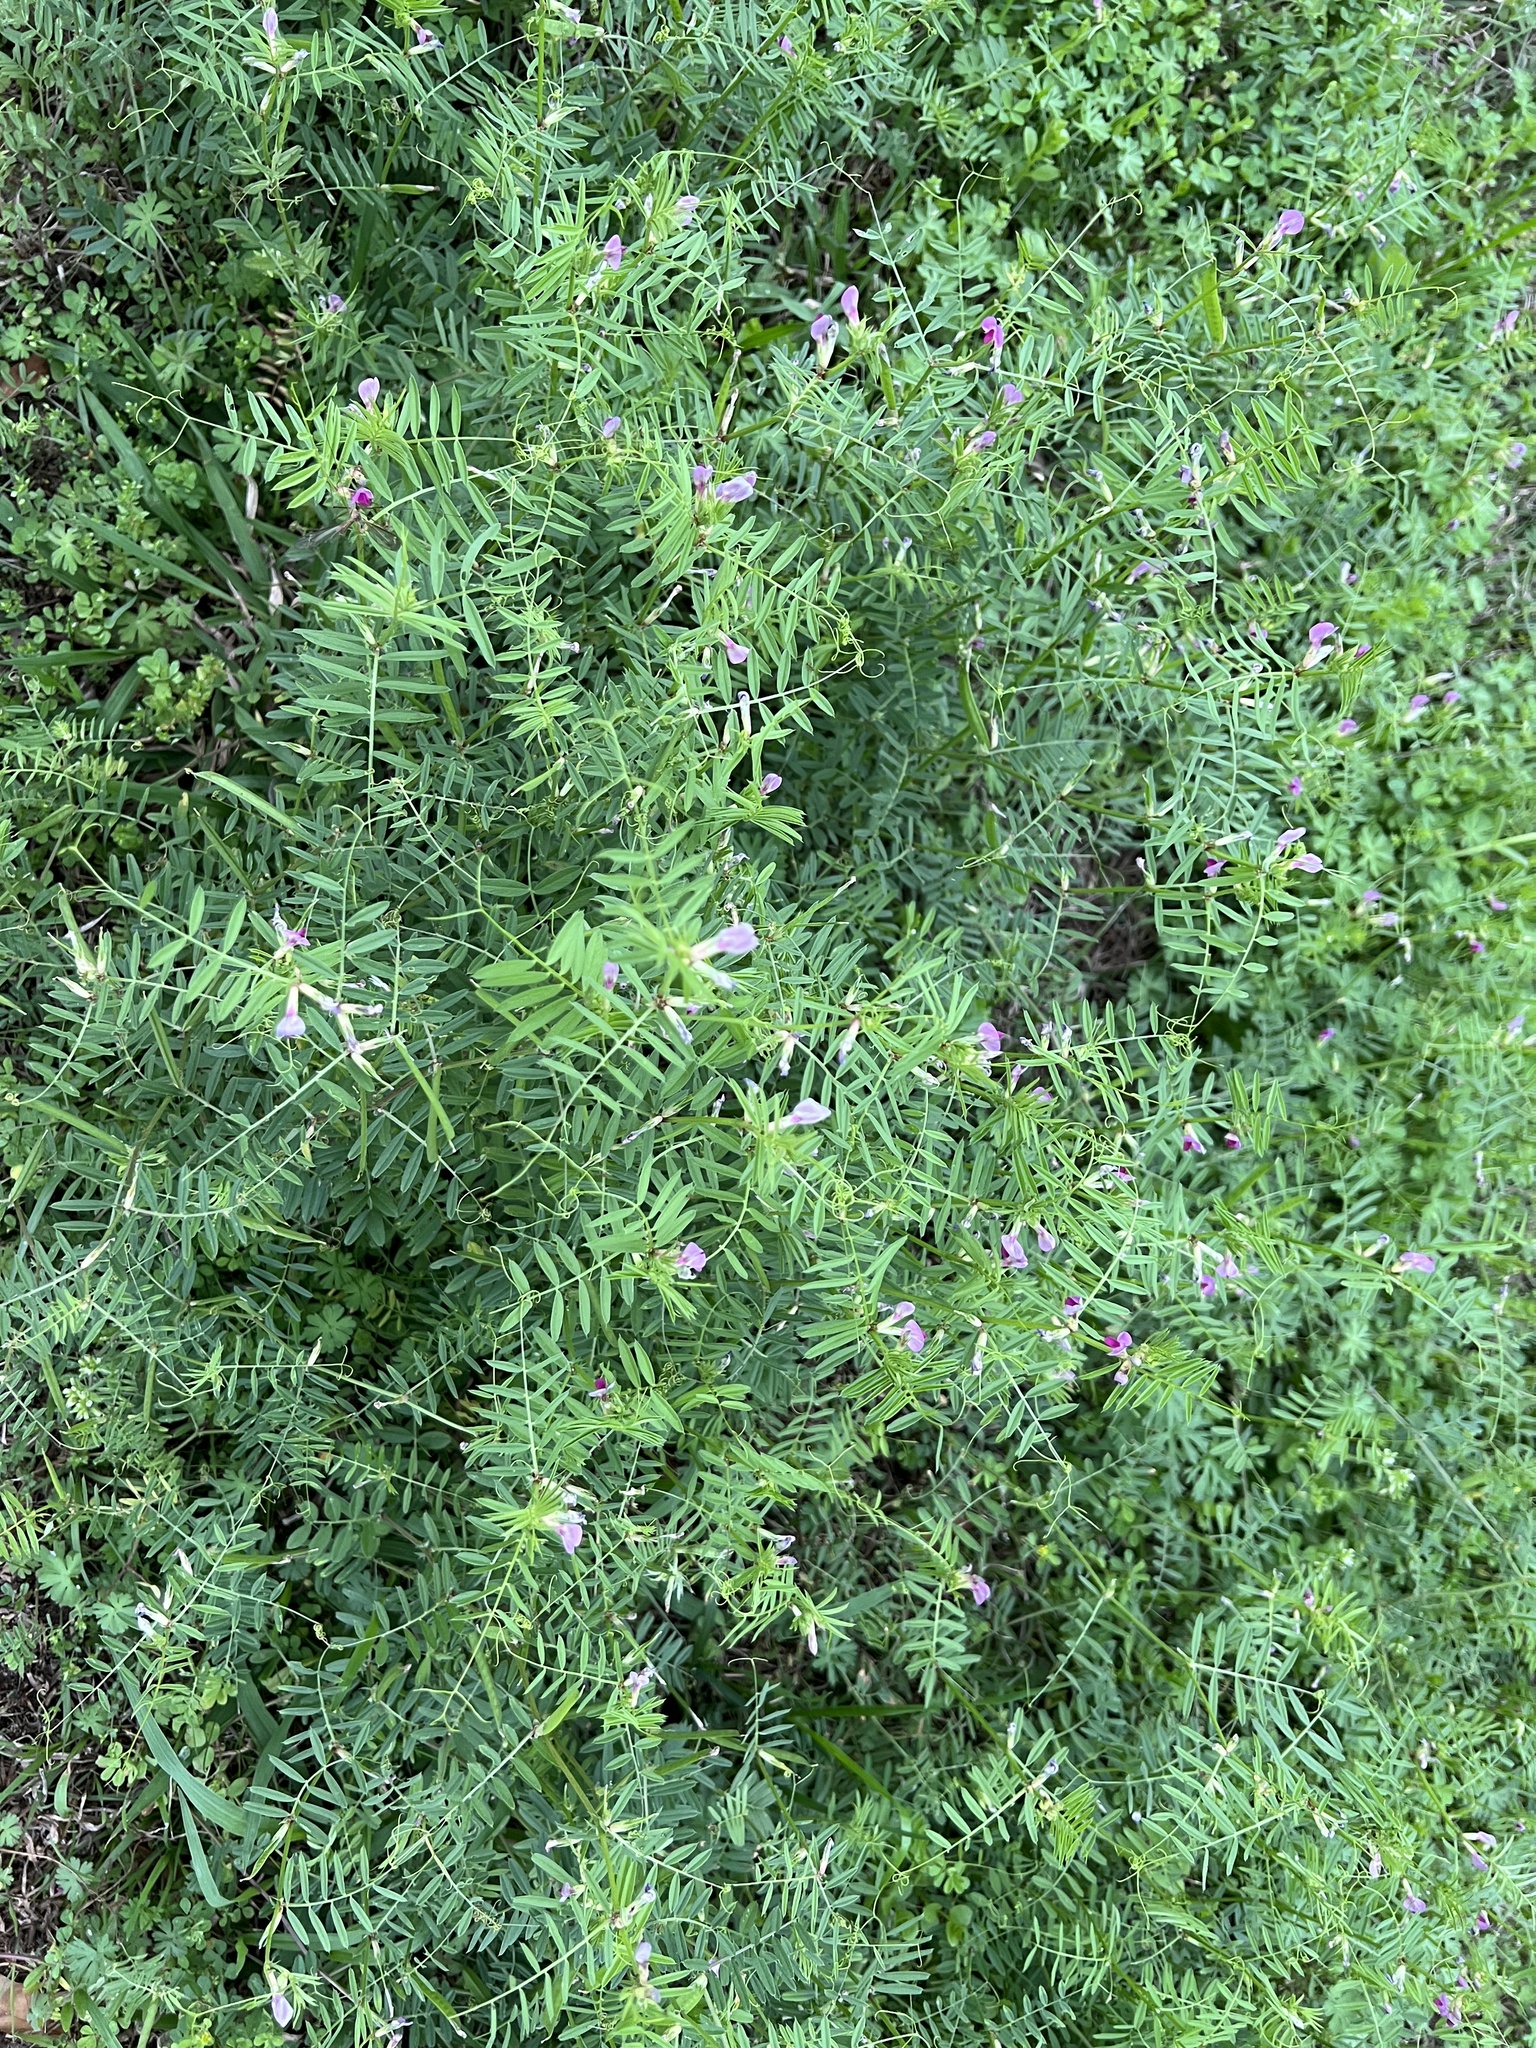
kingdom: Plantae
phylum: Tracheophyta
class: Magnoliopsida
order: Fabales
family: Fabaceae
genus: Vicia
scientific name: Vicia sativa
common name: Garden vetch
